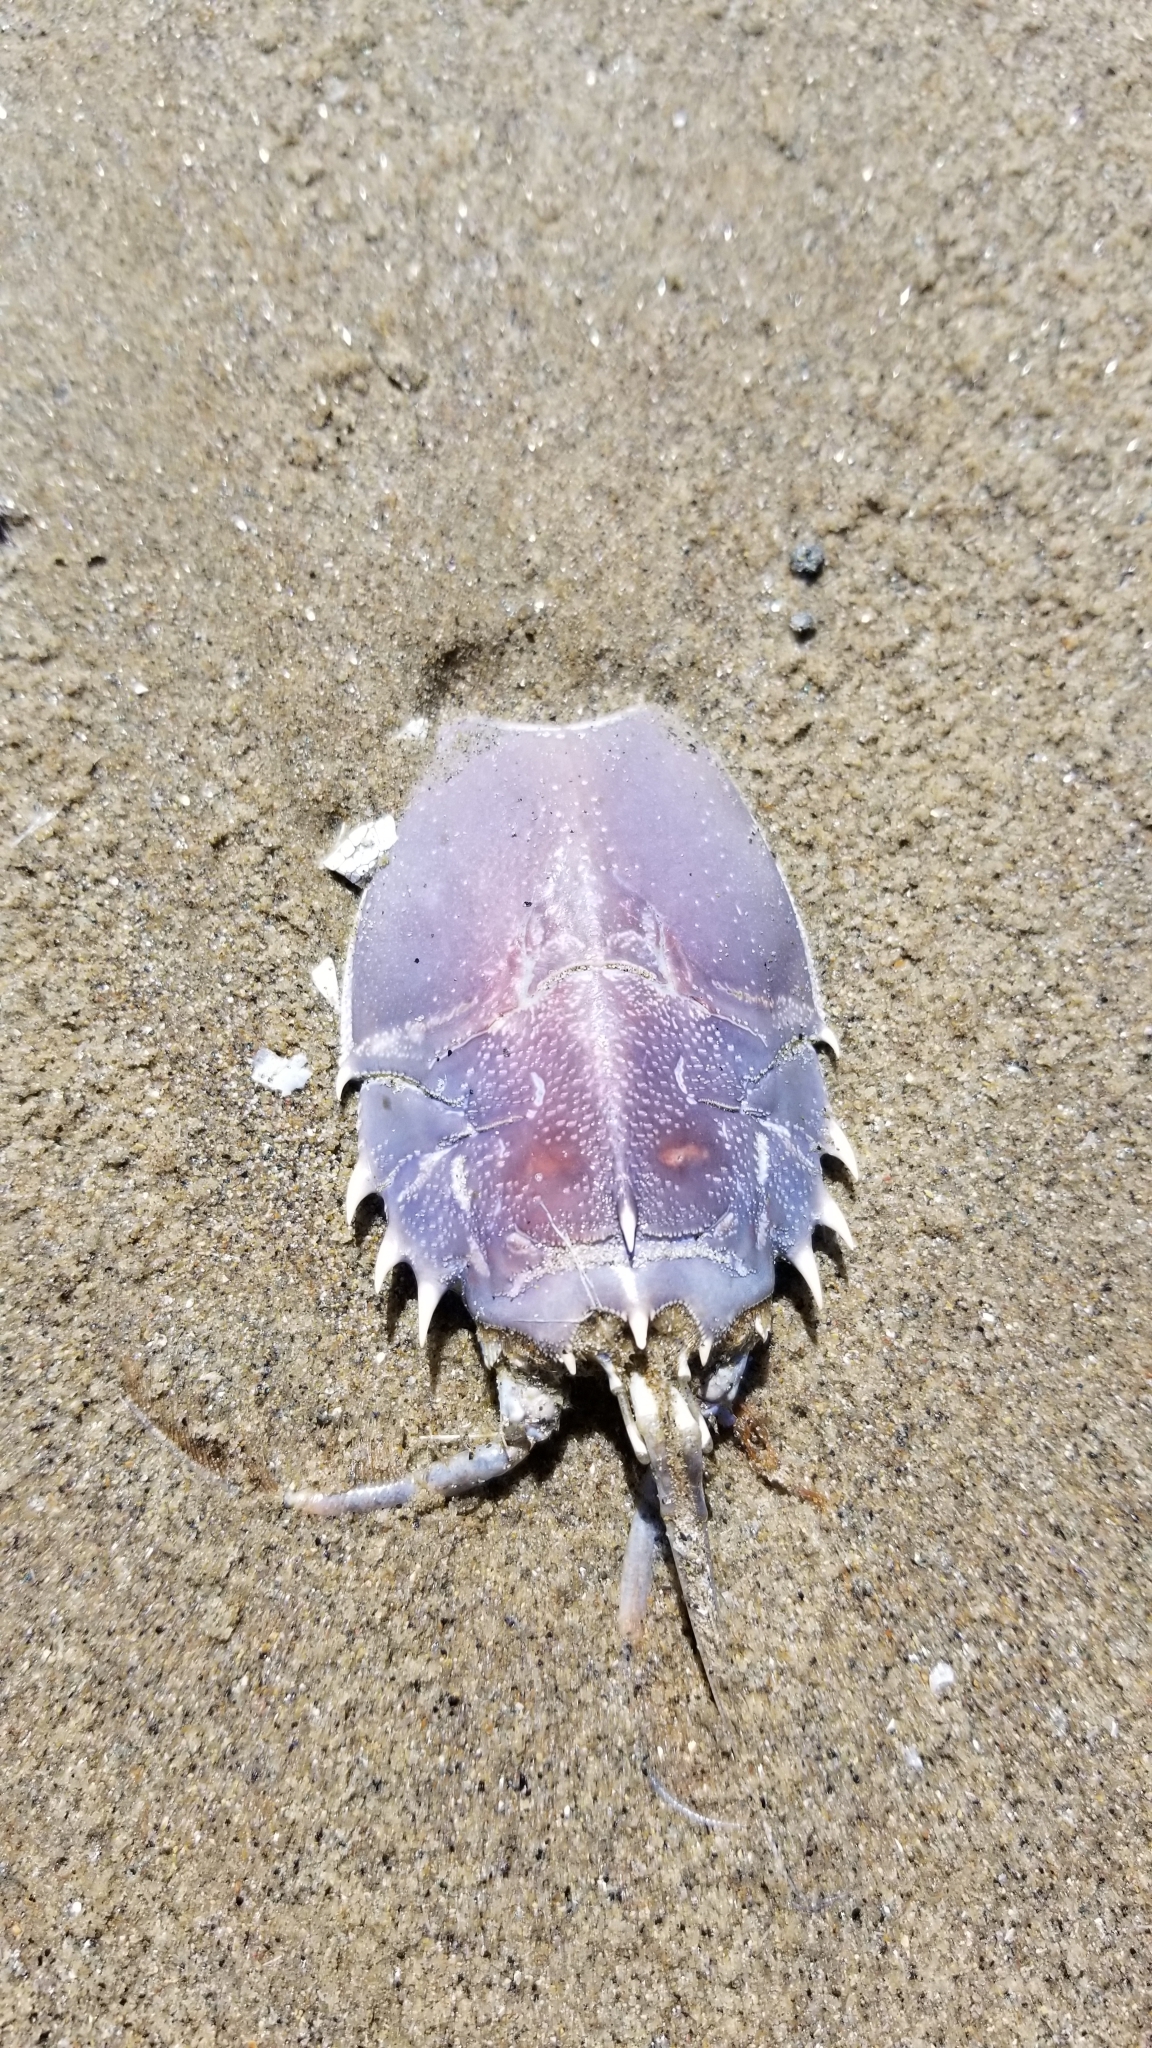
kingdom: Animalia
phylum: Arthropoda
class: Malacostraca
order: Decapoda
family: Blepharipodidae
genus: Blepharipoda
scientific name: Blepharipoda occidentalis
